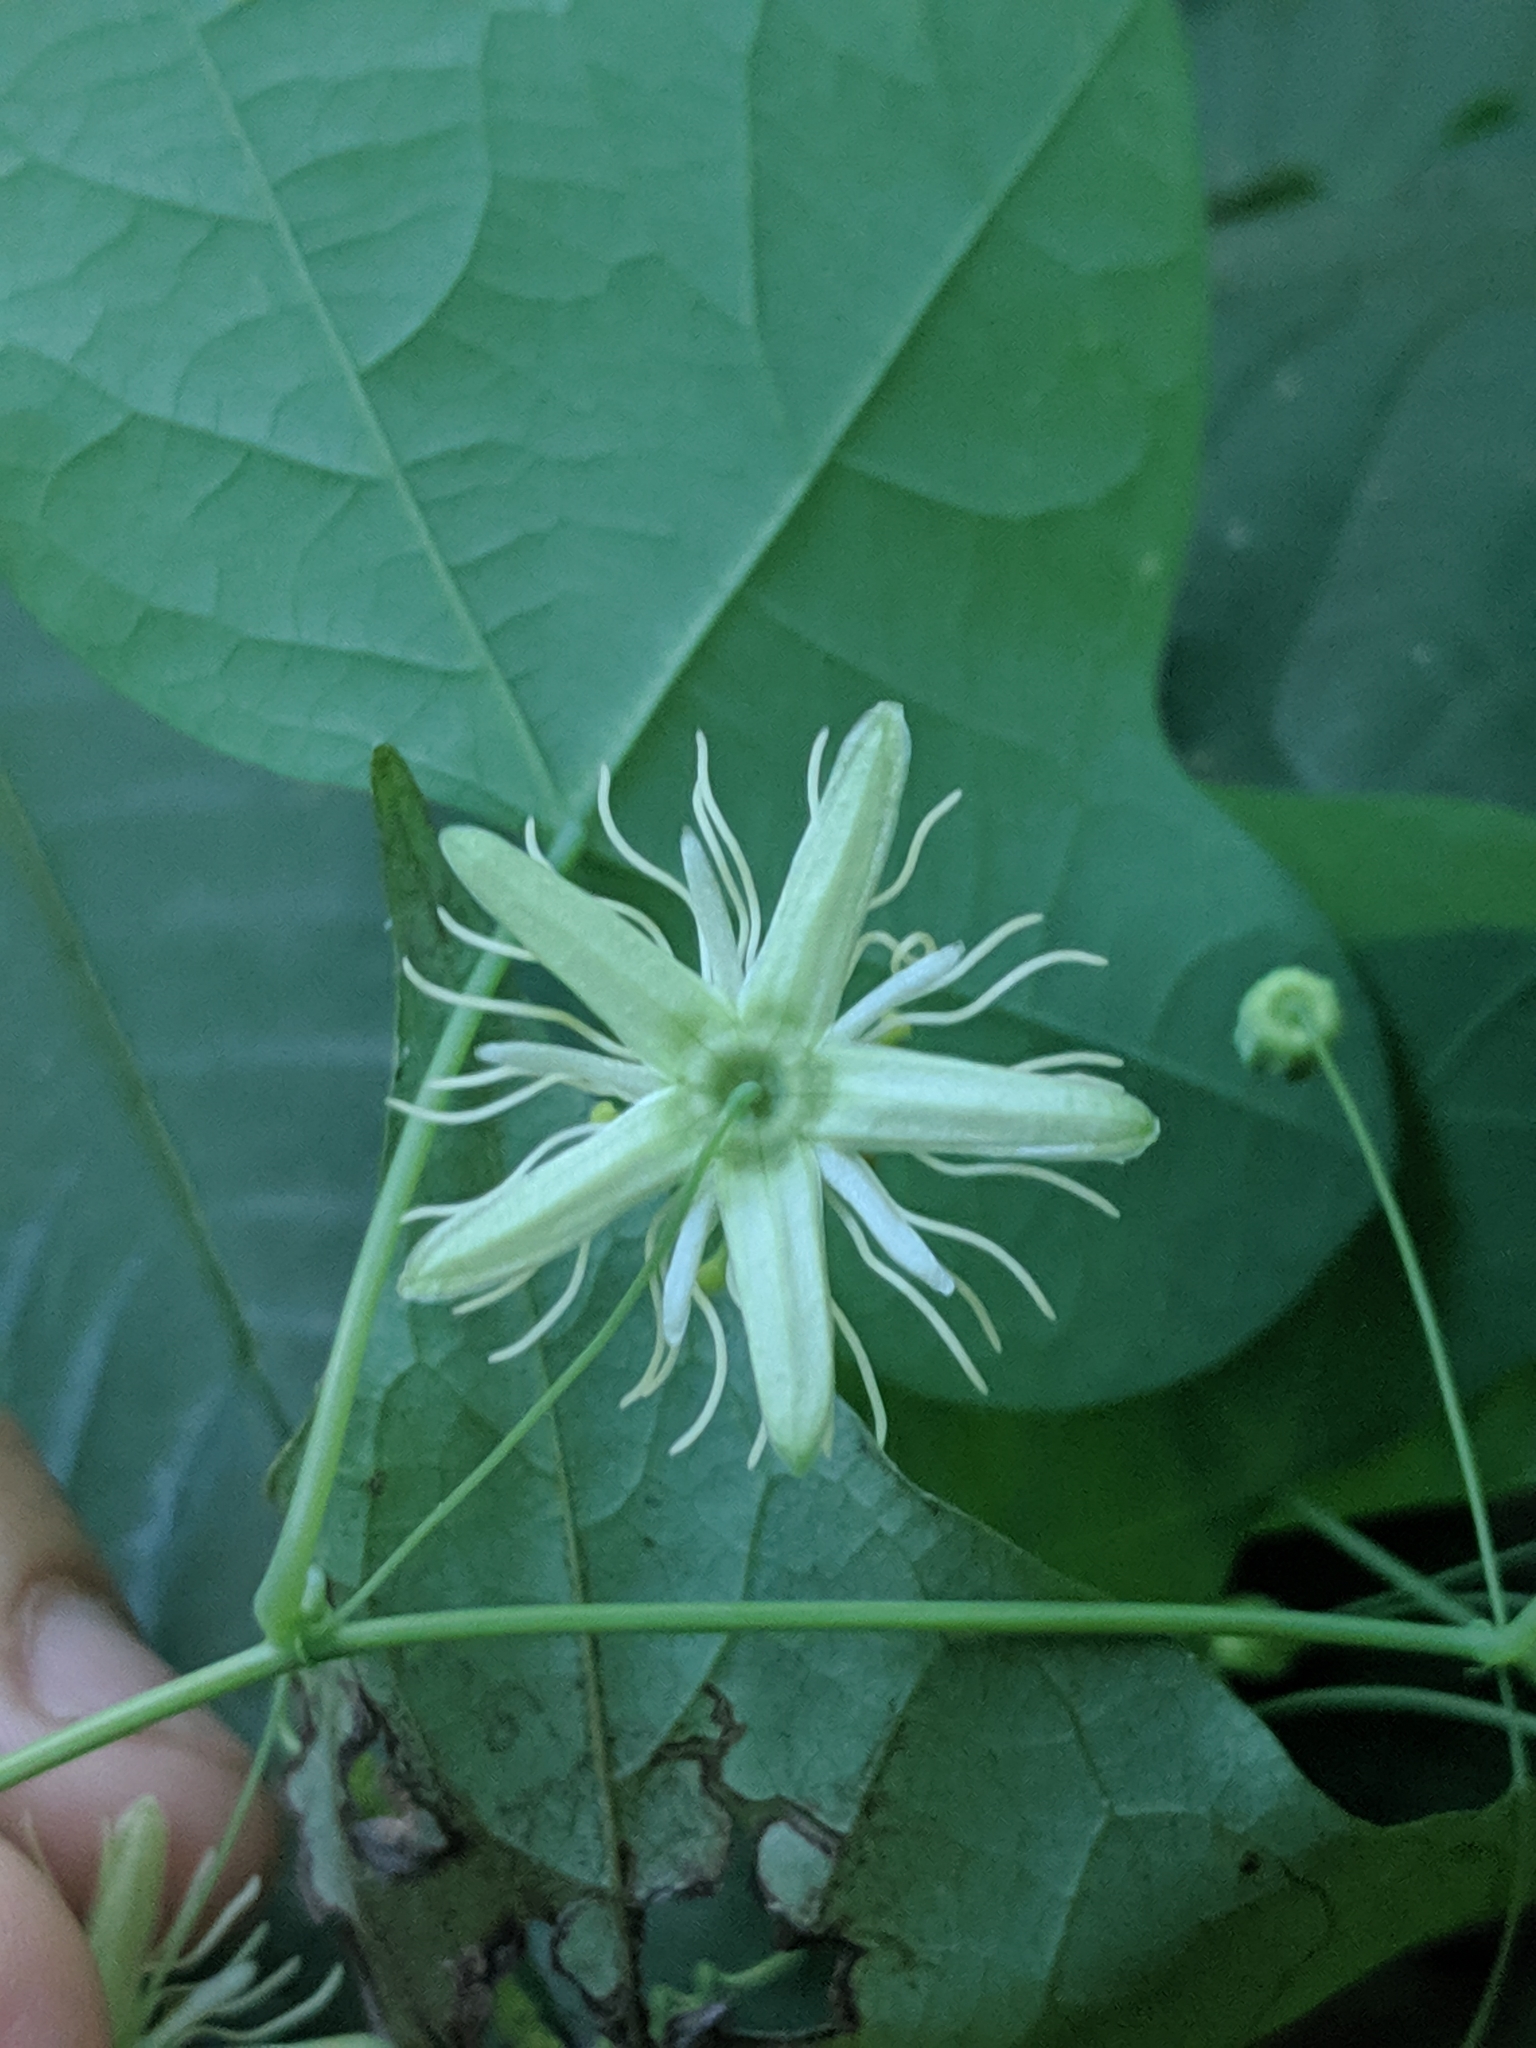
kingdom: Plantae
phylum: Tracheophyta
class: Magnoliopsida
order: Malpighiales
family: Passifloraceae
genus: Passiflora
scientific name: Passiflora lutea
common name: Yellow passionflower
